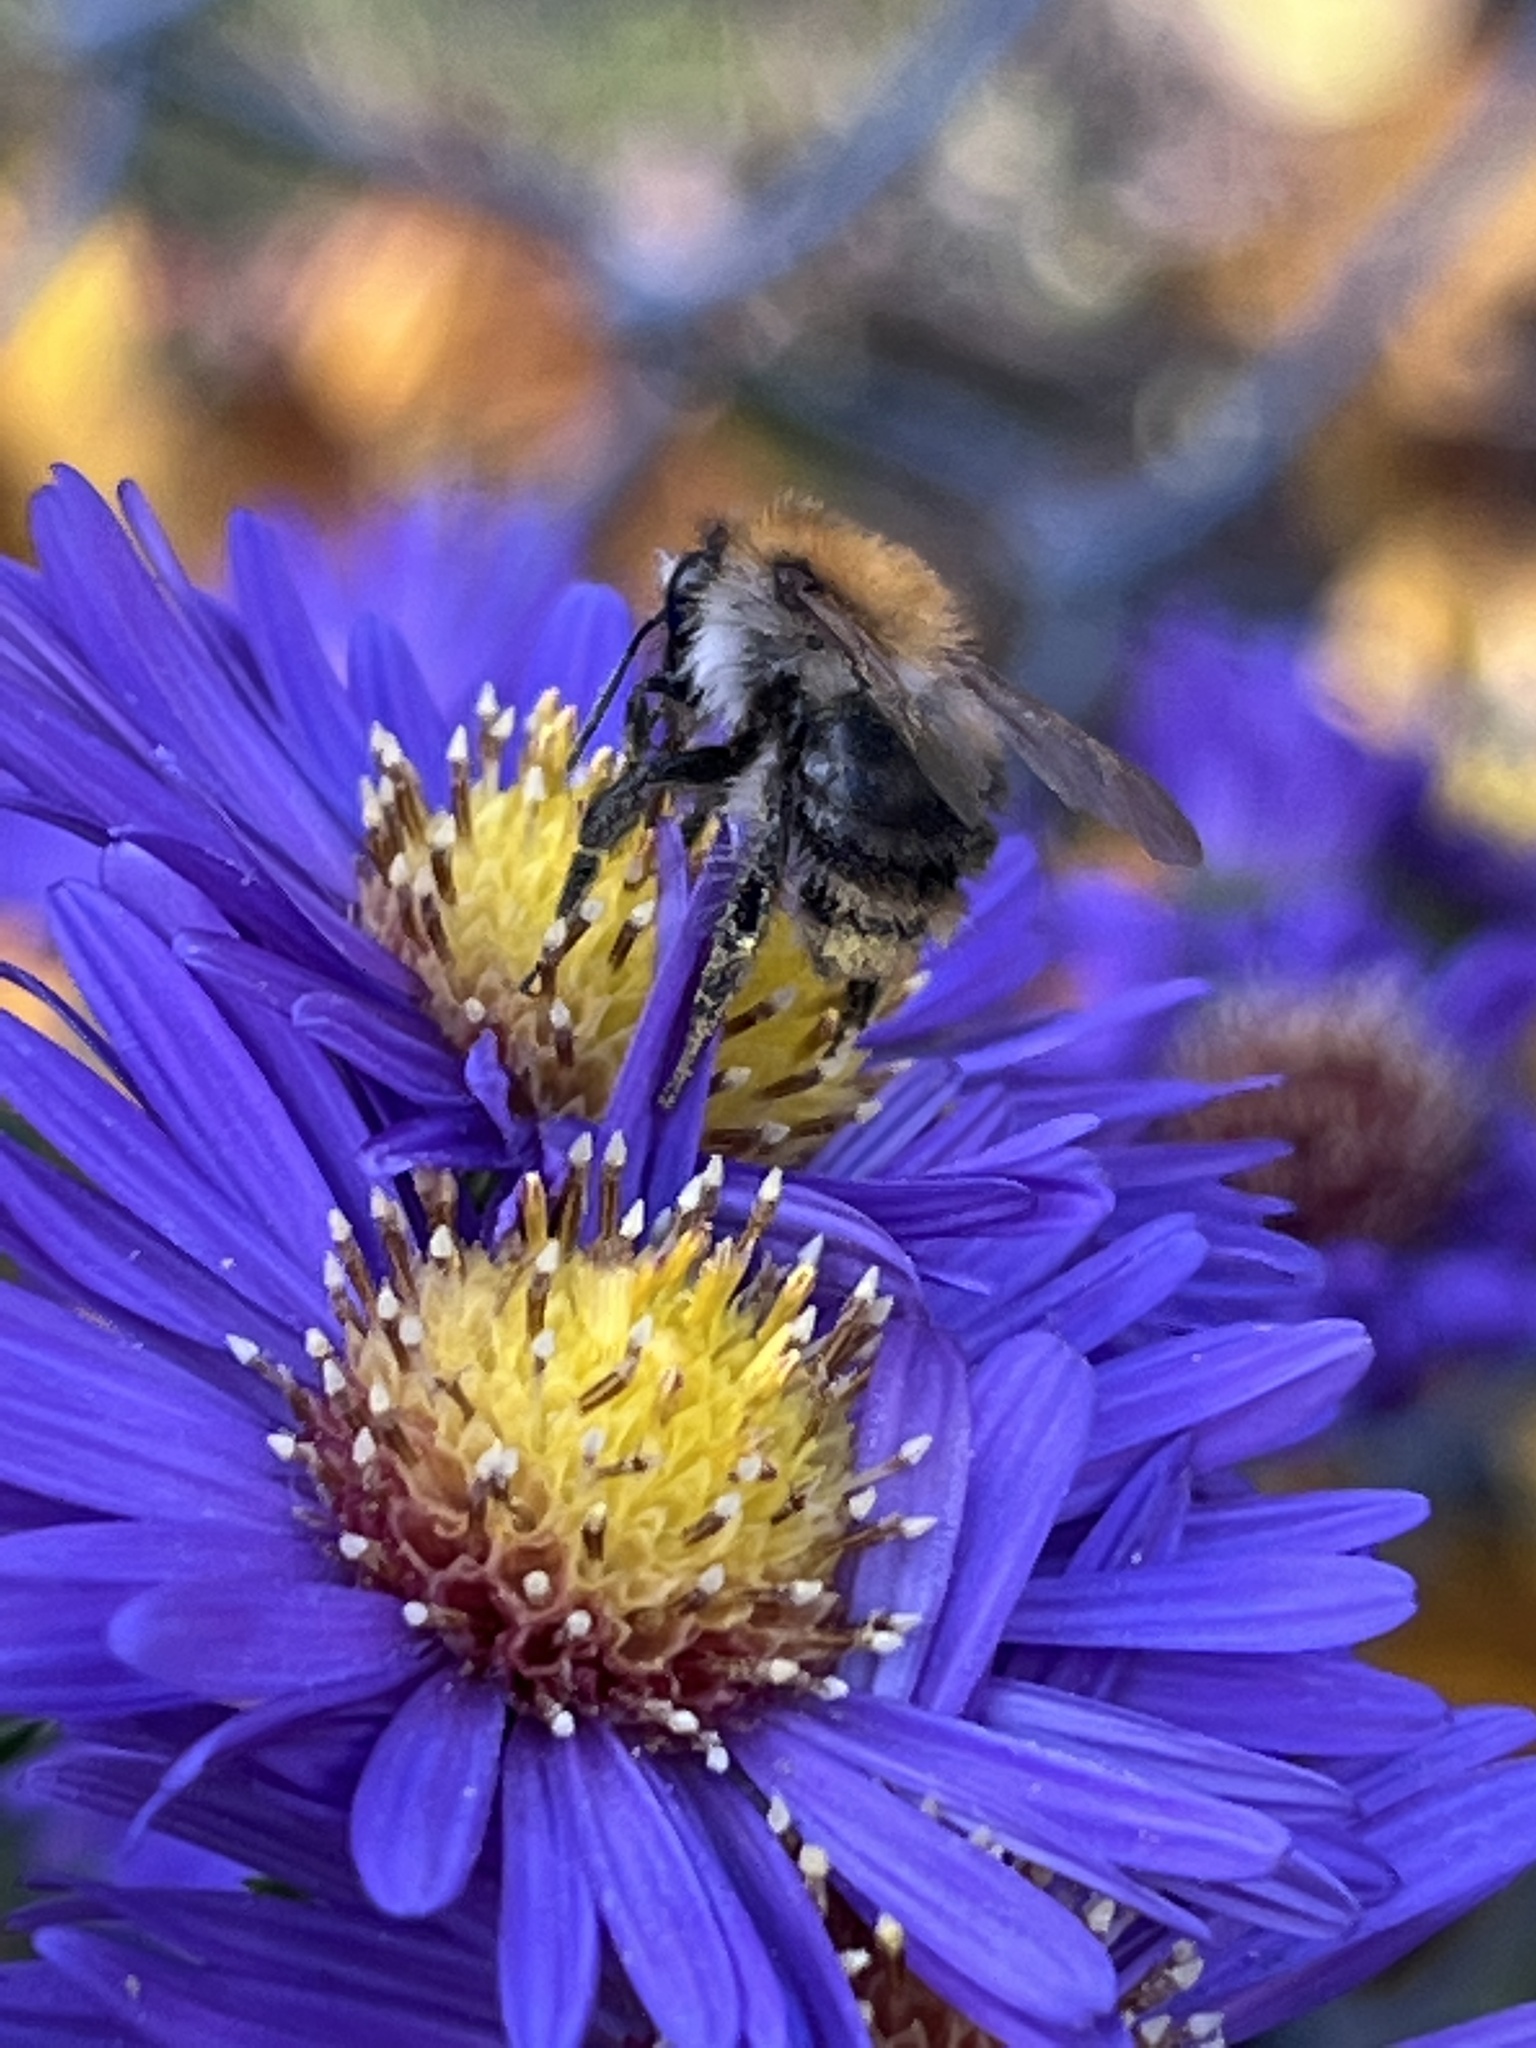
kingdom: Animalia
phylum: Arthropoda
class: Insecta
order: Hymenoptera
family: Apidae
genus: Bombus
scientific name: Bombus pascuorum
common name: Common carder bee
